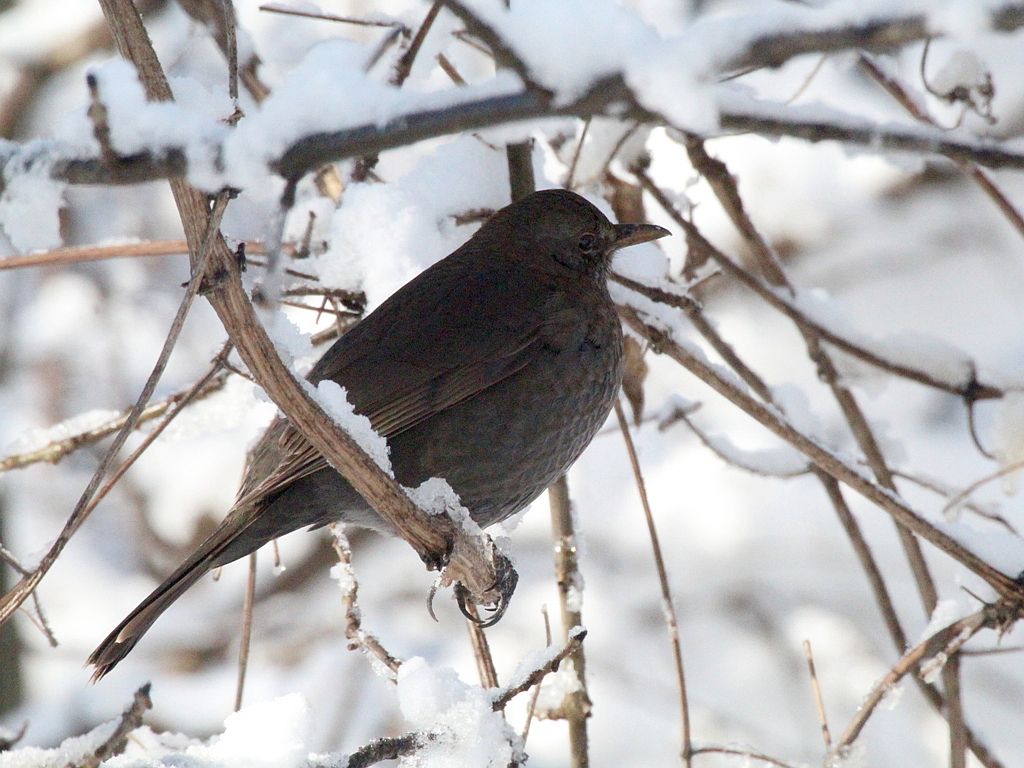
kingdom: Animalia
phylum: Chordata
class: Aves
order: Passeriformes
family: Turdidae
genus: Turdus
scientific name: Turdus merula
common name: Common blackbird
